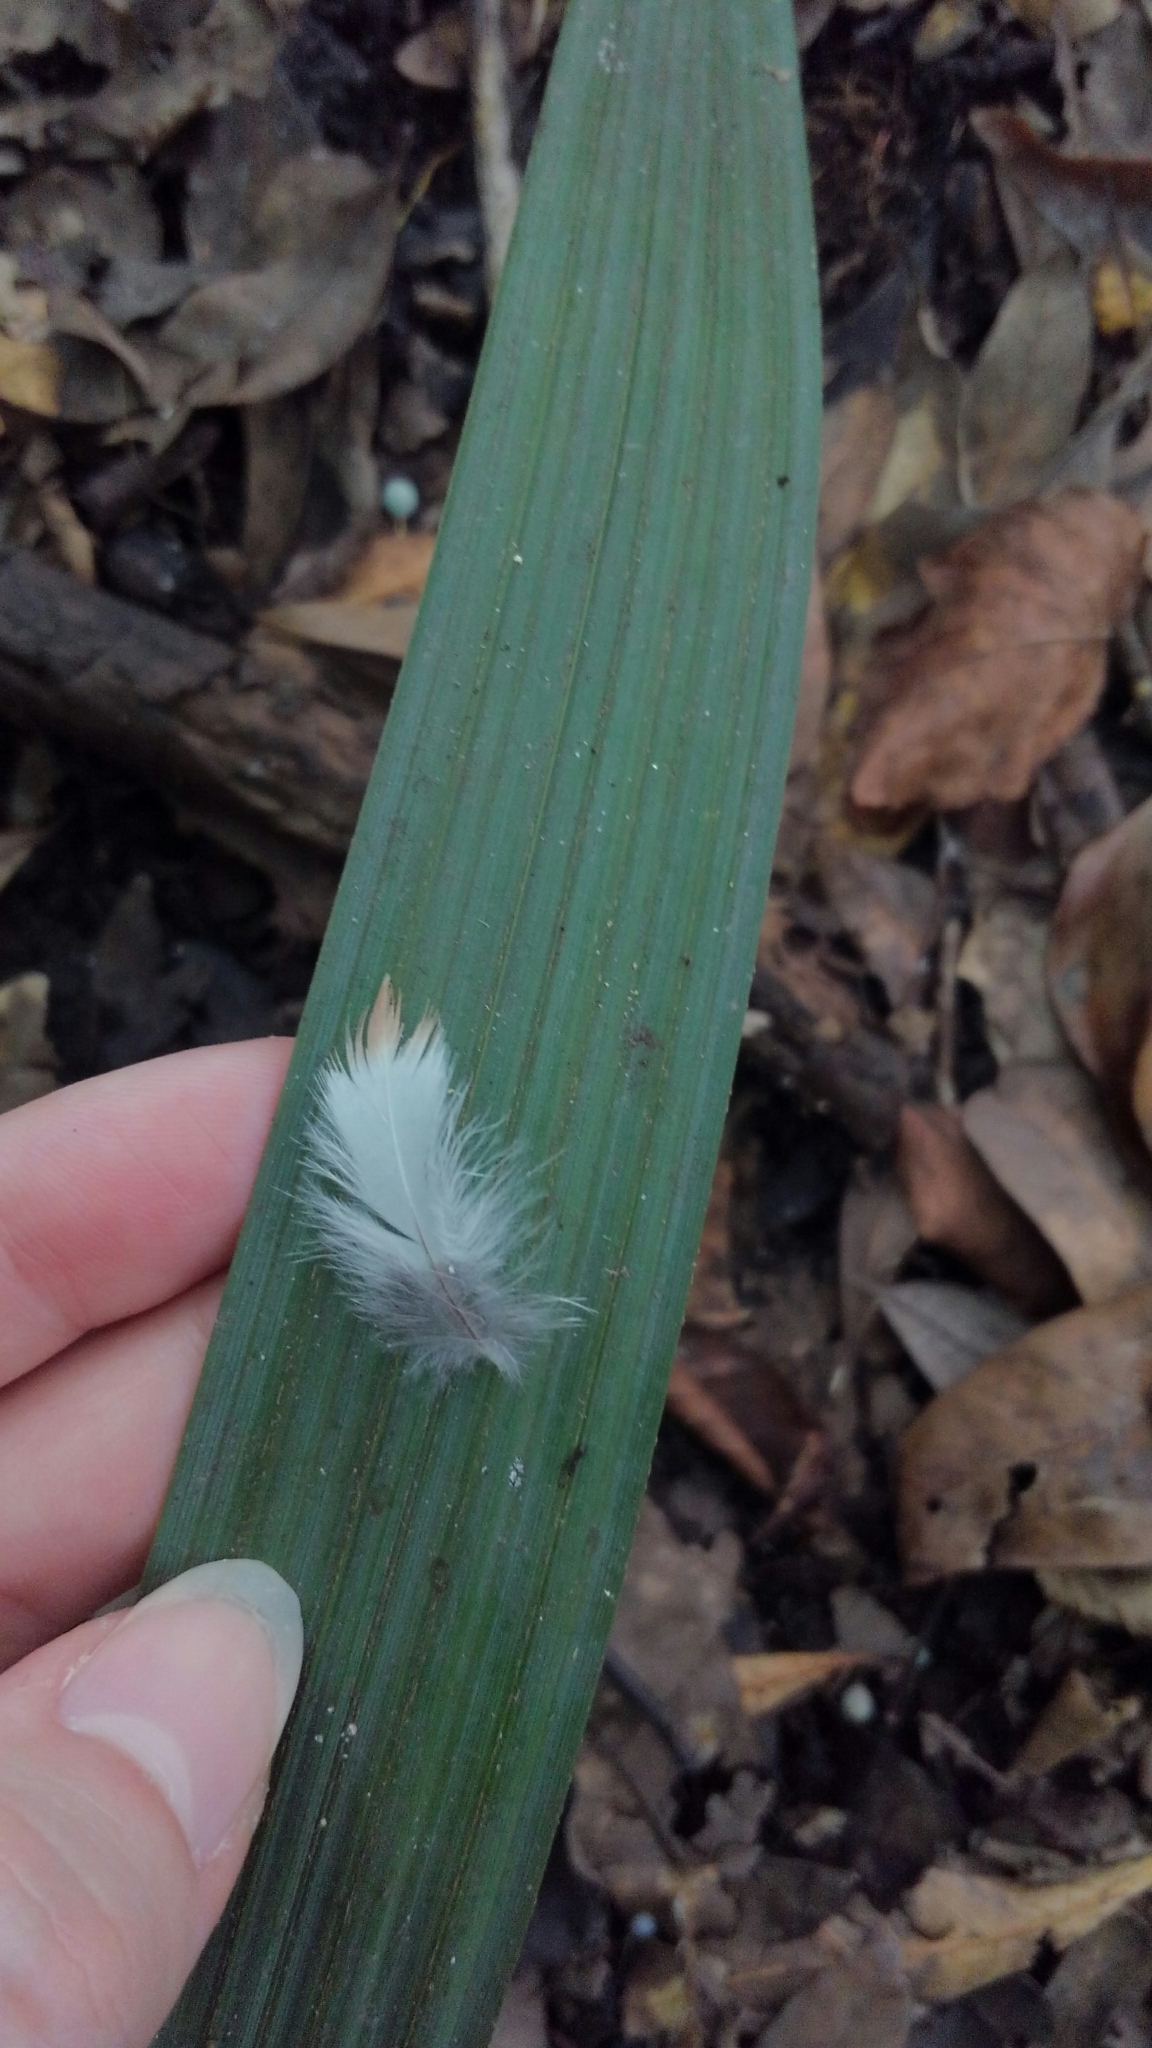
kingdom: Animalia
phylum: Chordata
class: Aves
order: Pelecaniformes
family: Ardeidae
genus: Ardea
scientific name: Ardea herodias
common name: Great blue heron
